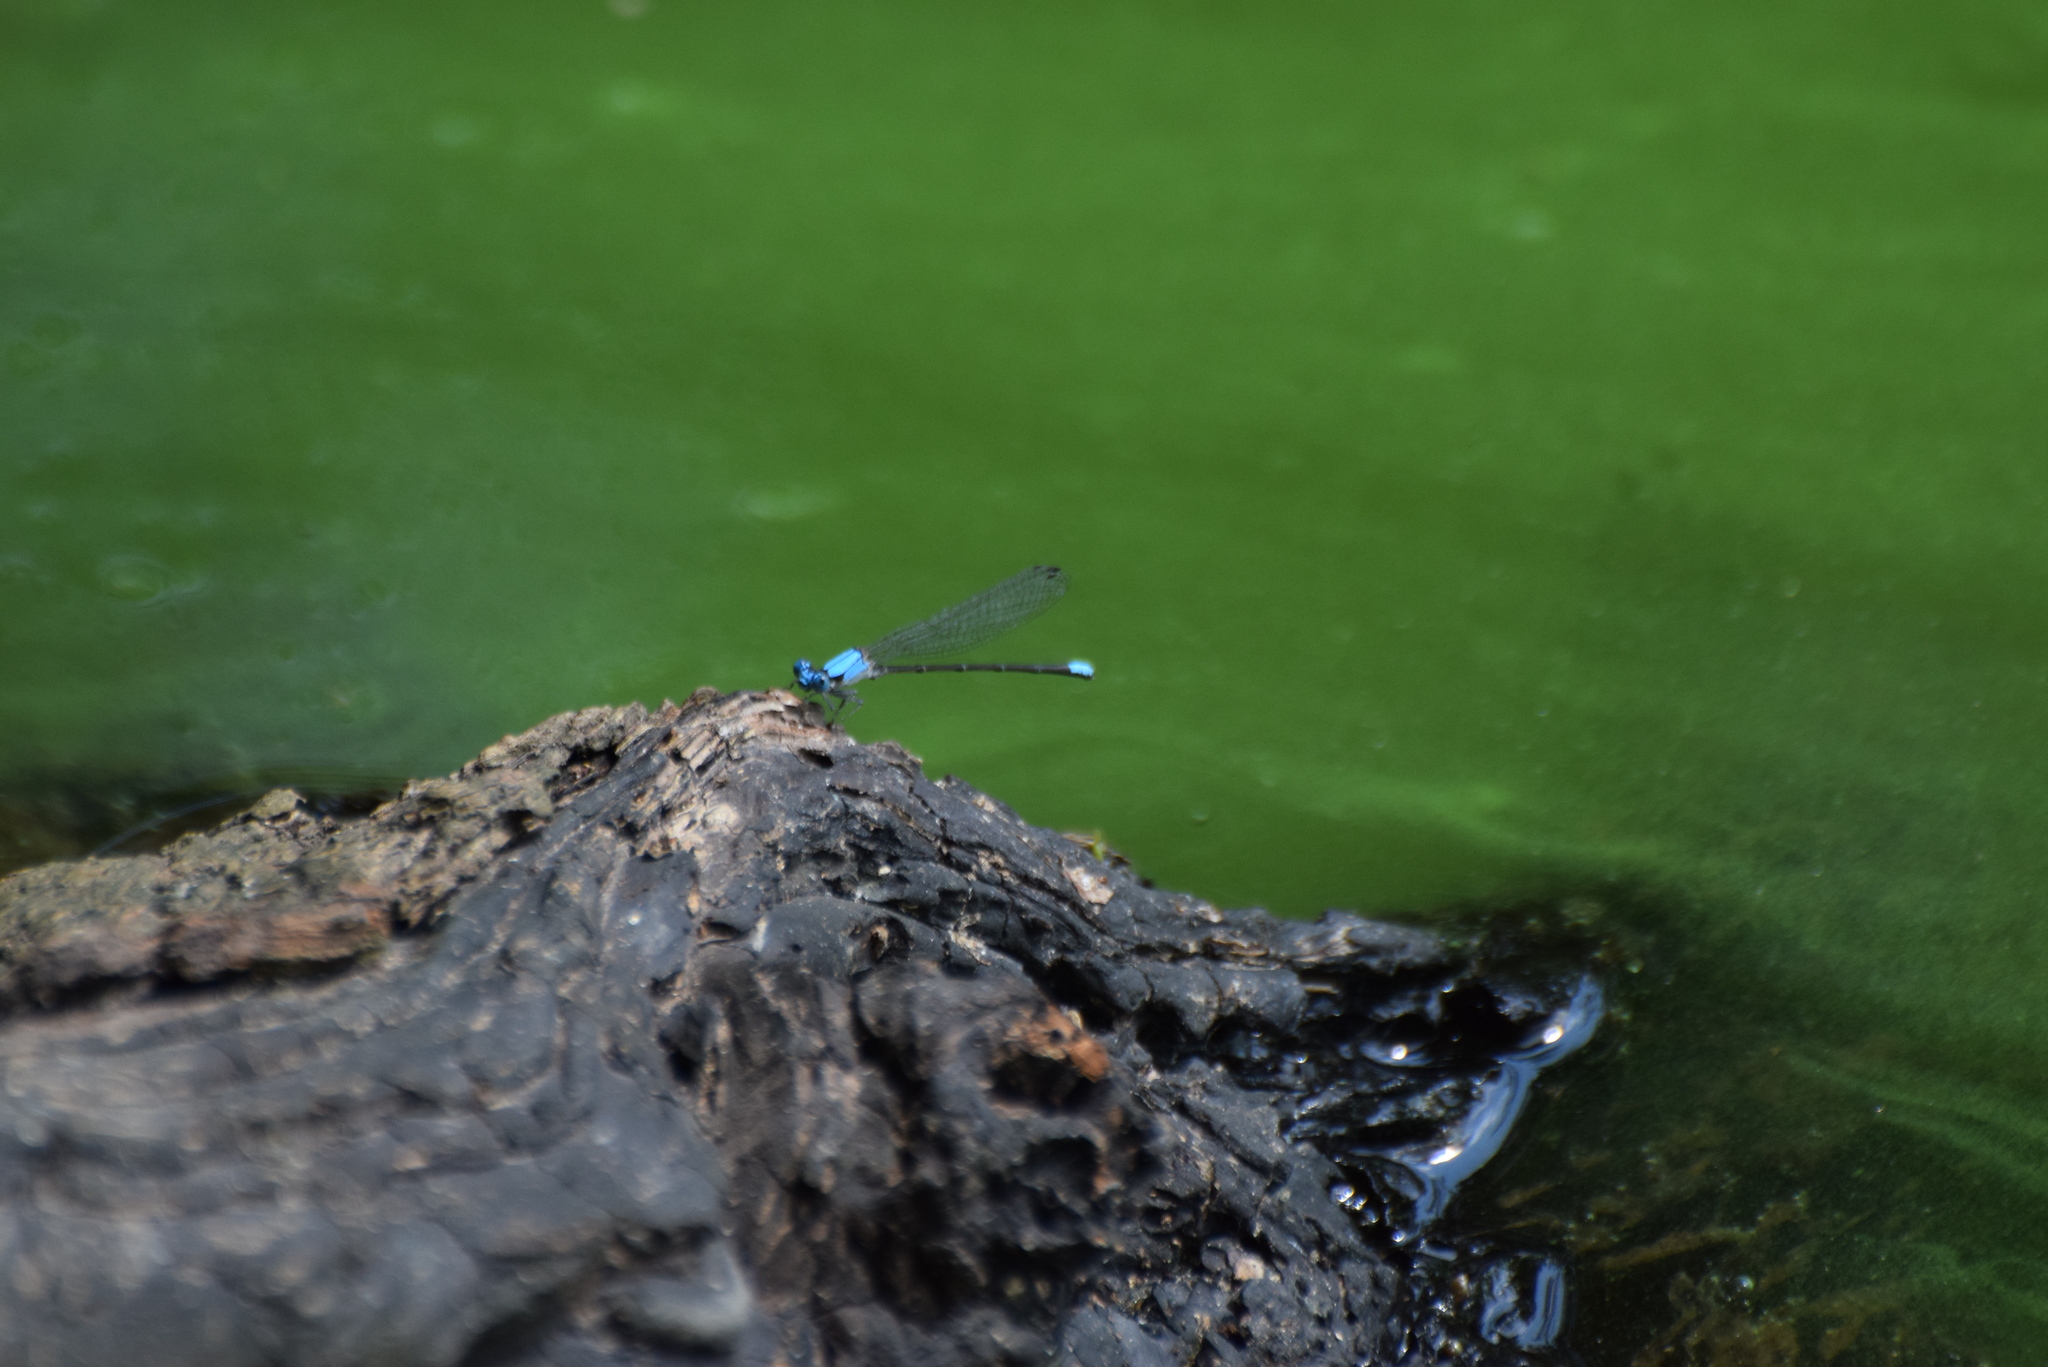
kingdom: Animalia
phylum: Arthropoda
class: Insecta
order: Odonata
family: Coenagrionidae
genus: Argia
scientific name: Argia apicalis
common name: Blue-fronted dancer
